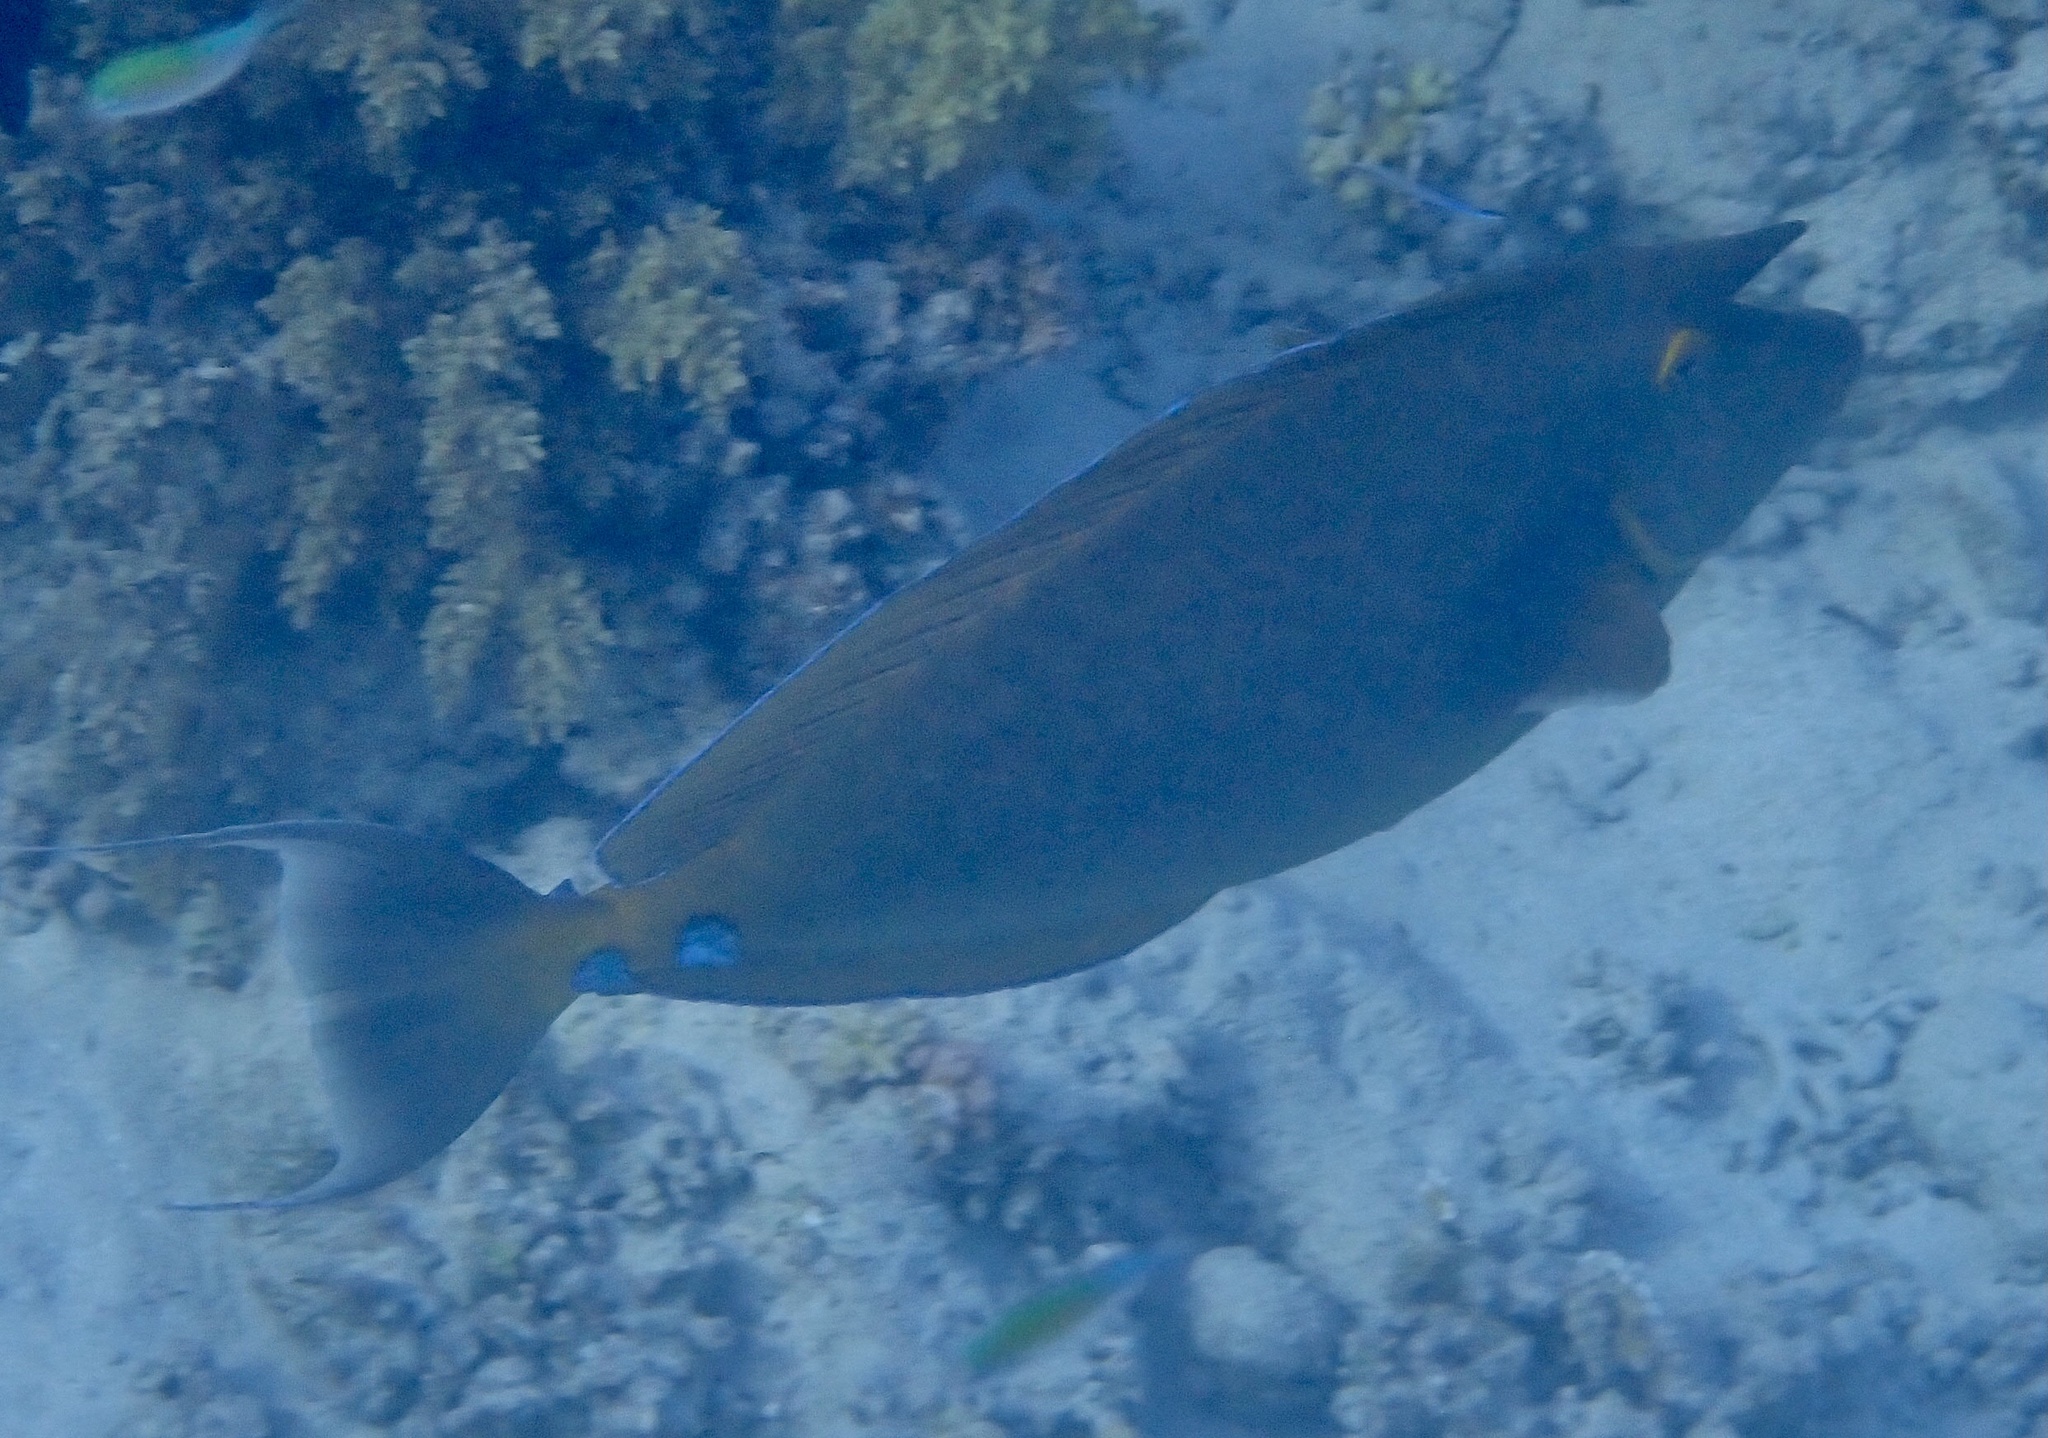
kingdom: Animalia
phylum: Chordata
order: Perciformes
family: Acanthuridae
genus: Naso
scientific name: Naso unicornis
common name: Bluespine unicornfish
